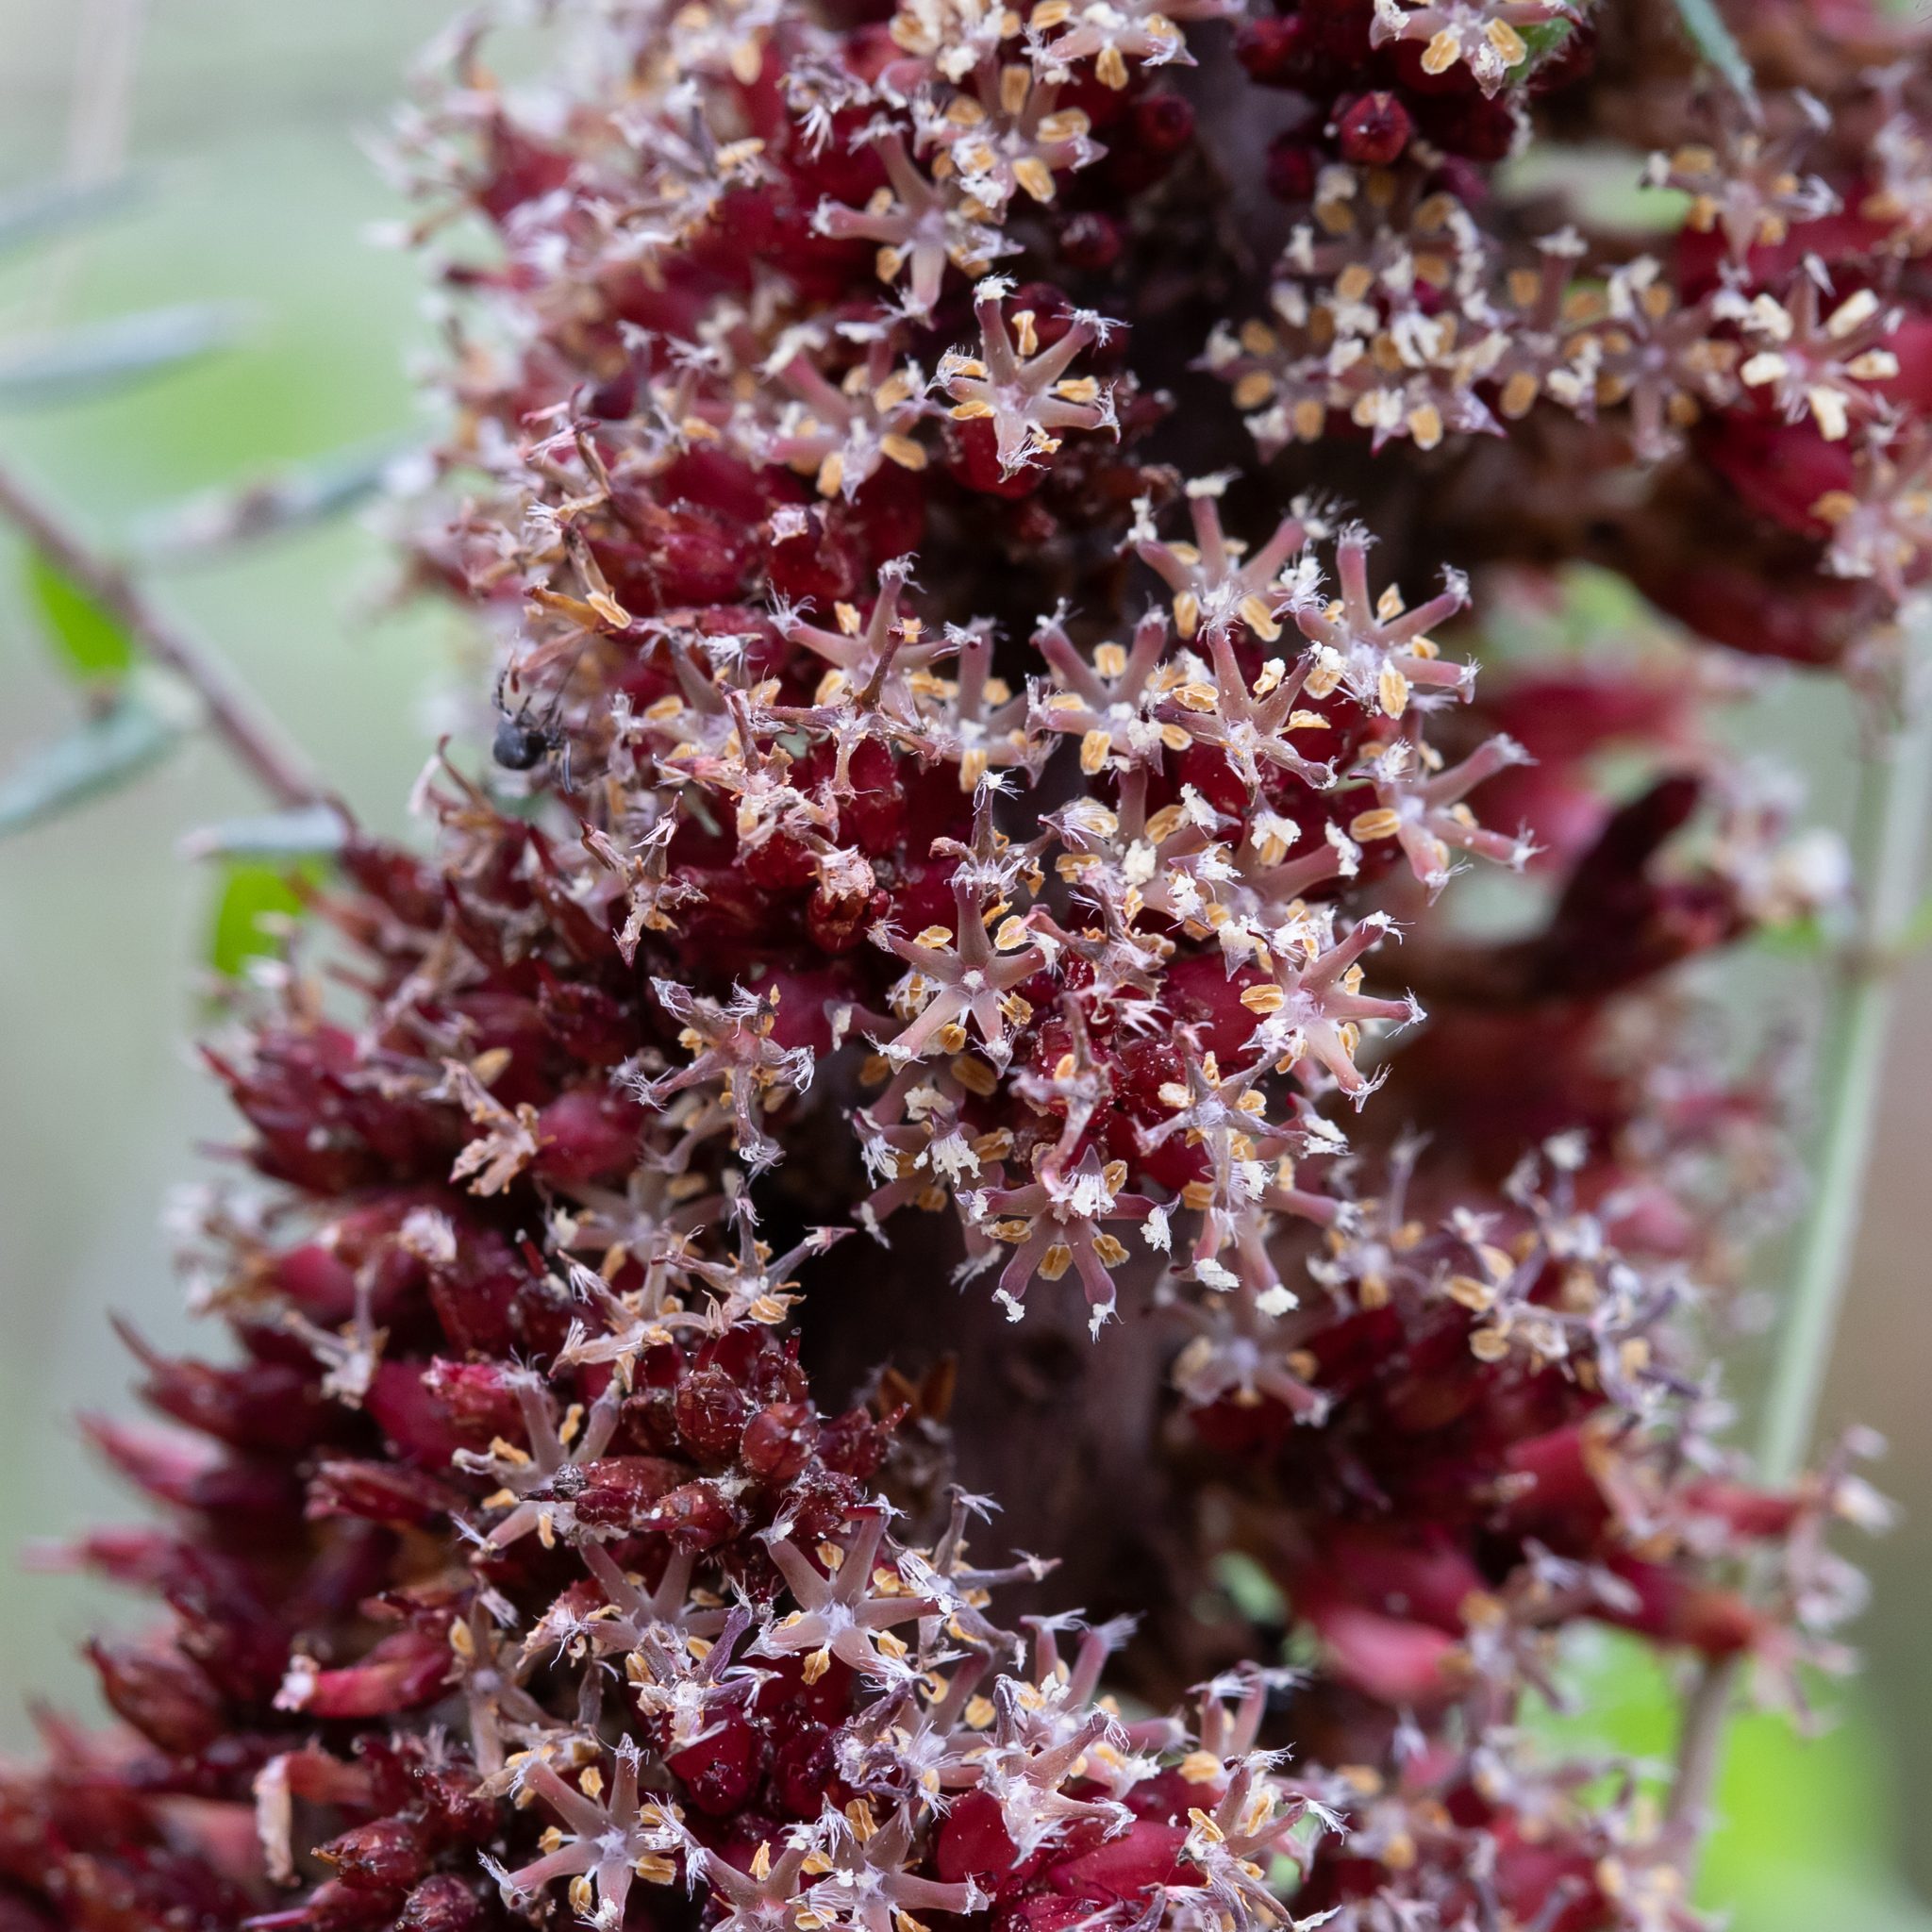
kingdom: Plantae
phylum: Tracheophyta
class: Magnoliopsida
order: Ericales
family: Ericaceae
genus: Acrotriche
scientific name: Acrotriche fasciculiflora
